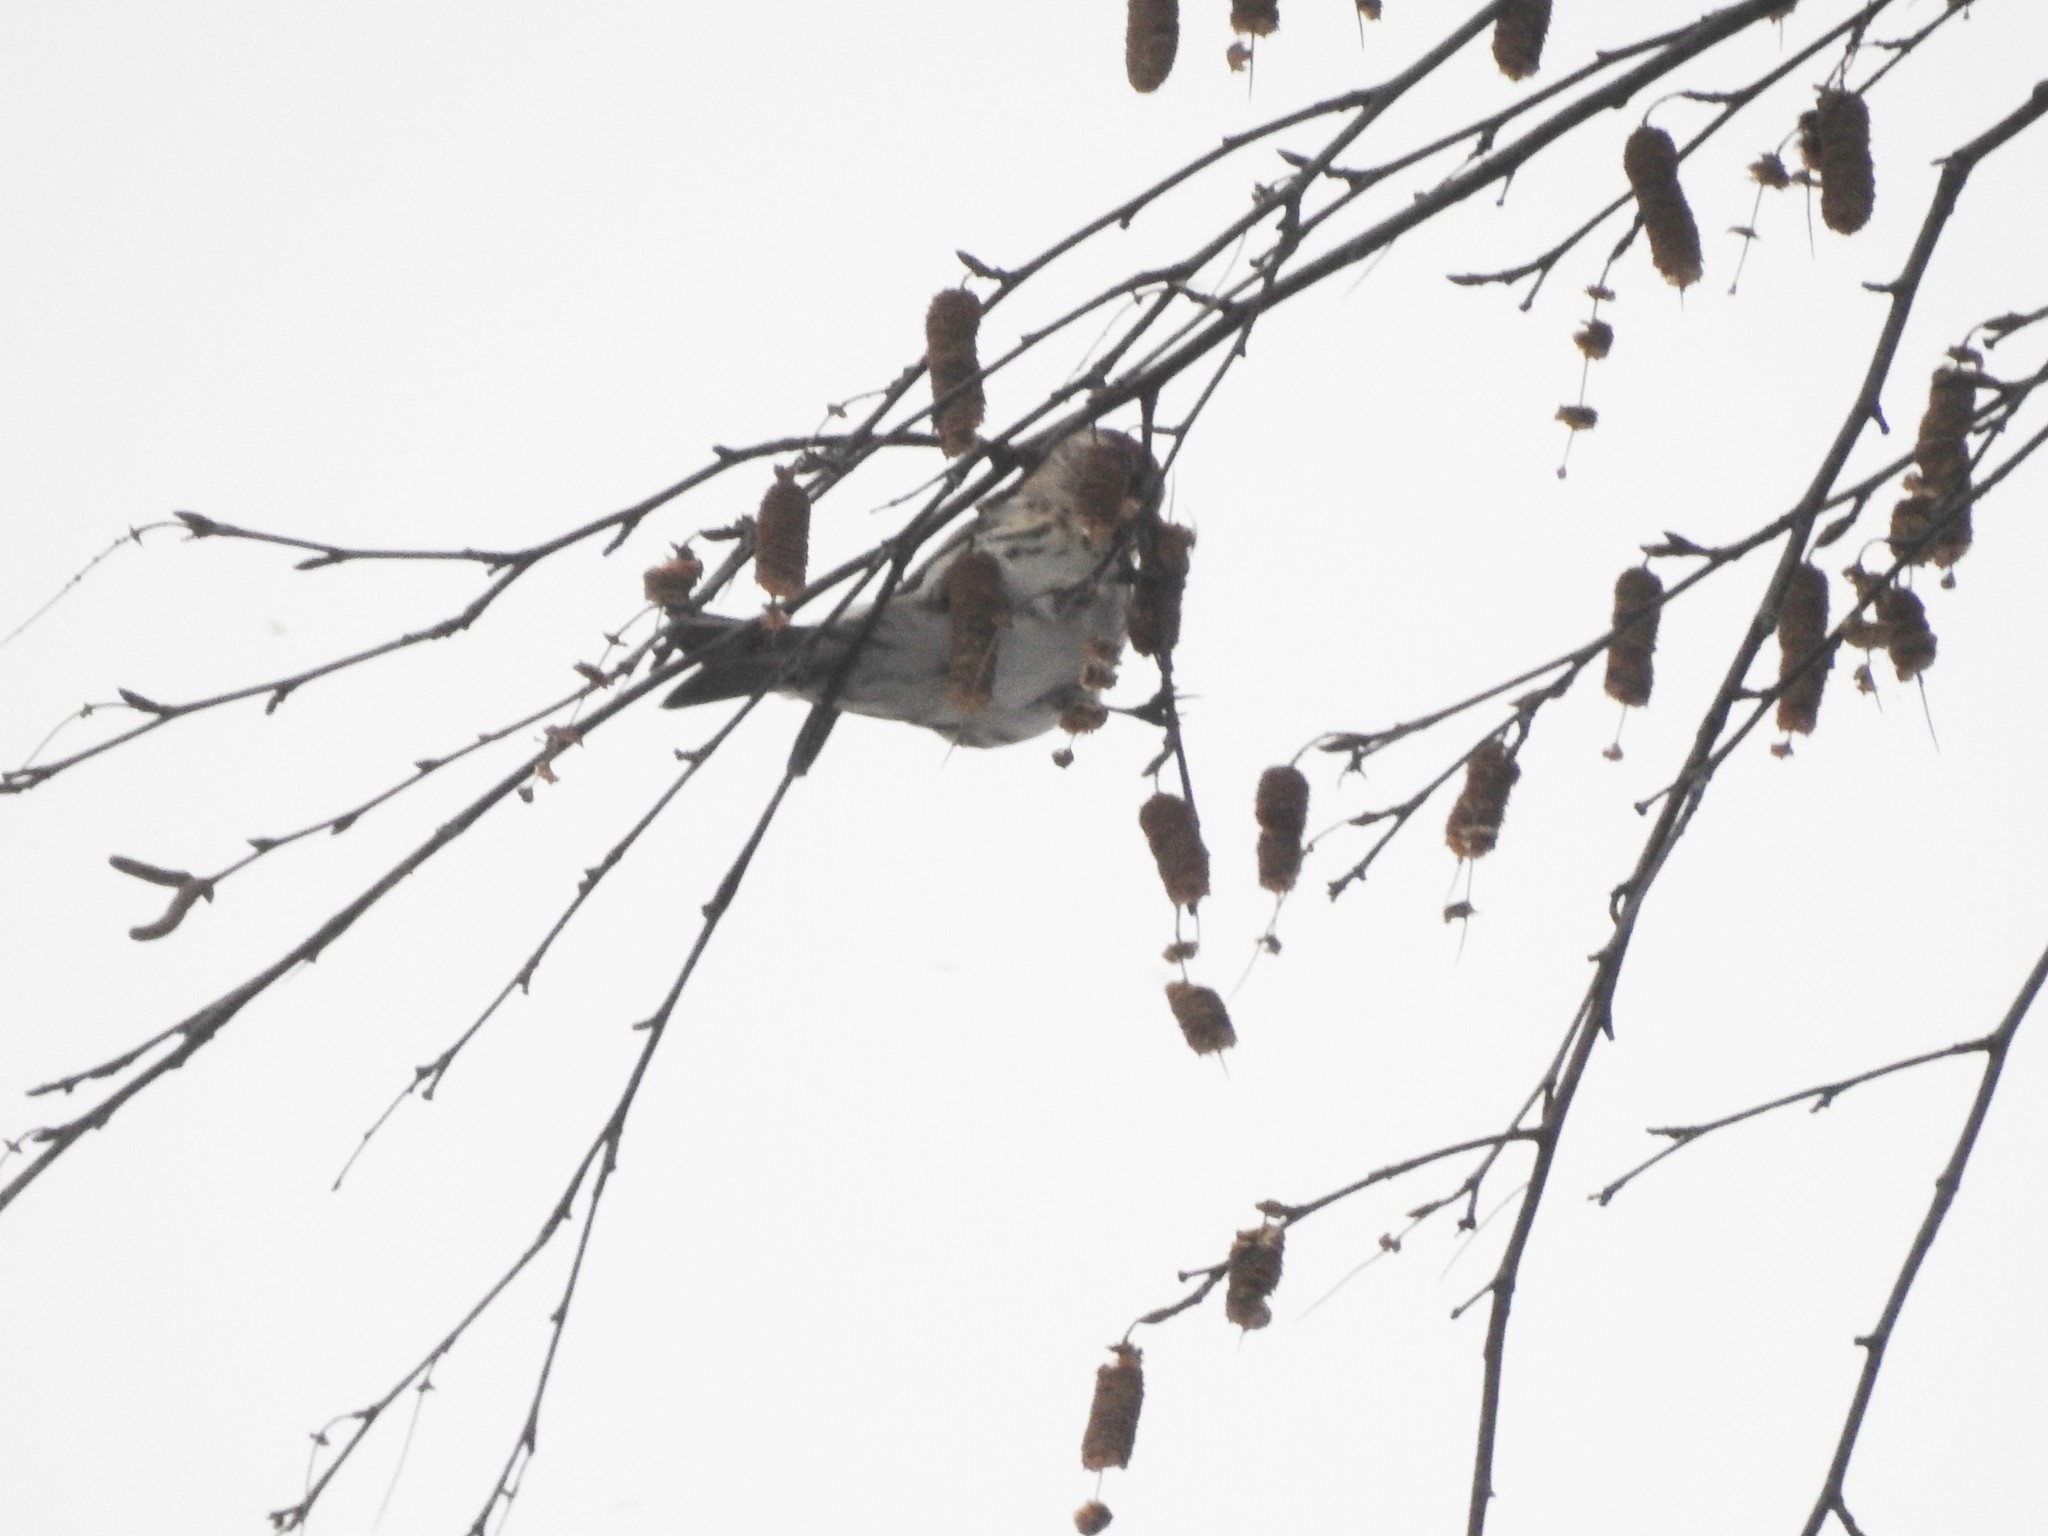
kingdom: Animalia
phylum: Chordata
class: Aves
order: Passeriformes
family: Fringillidae
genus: Spinus
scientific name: Spinus spinus
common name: Eurasian siskin
